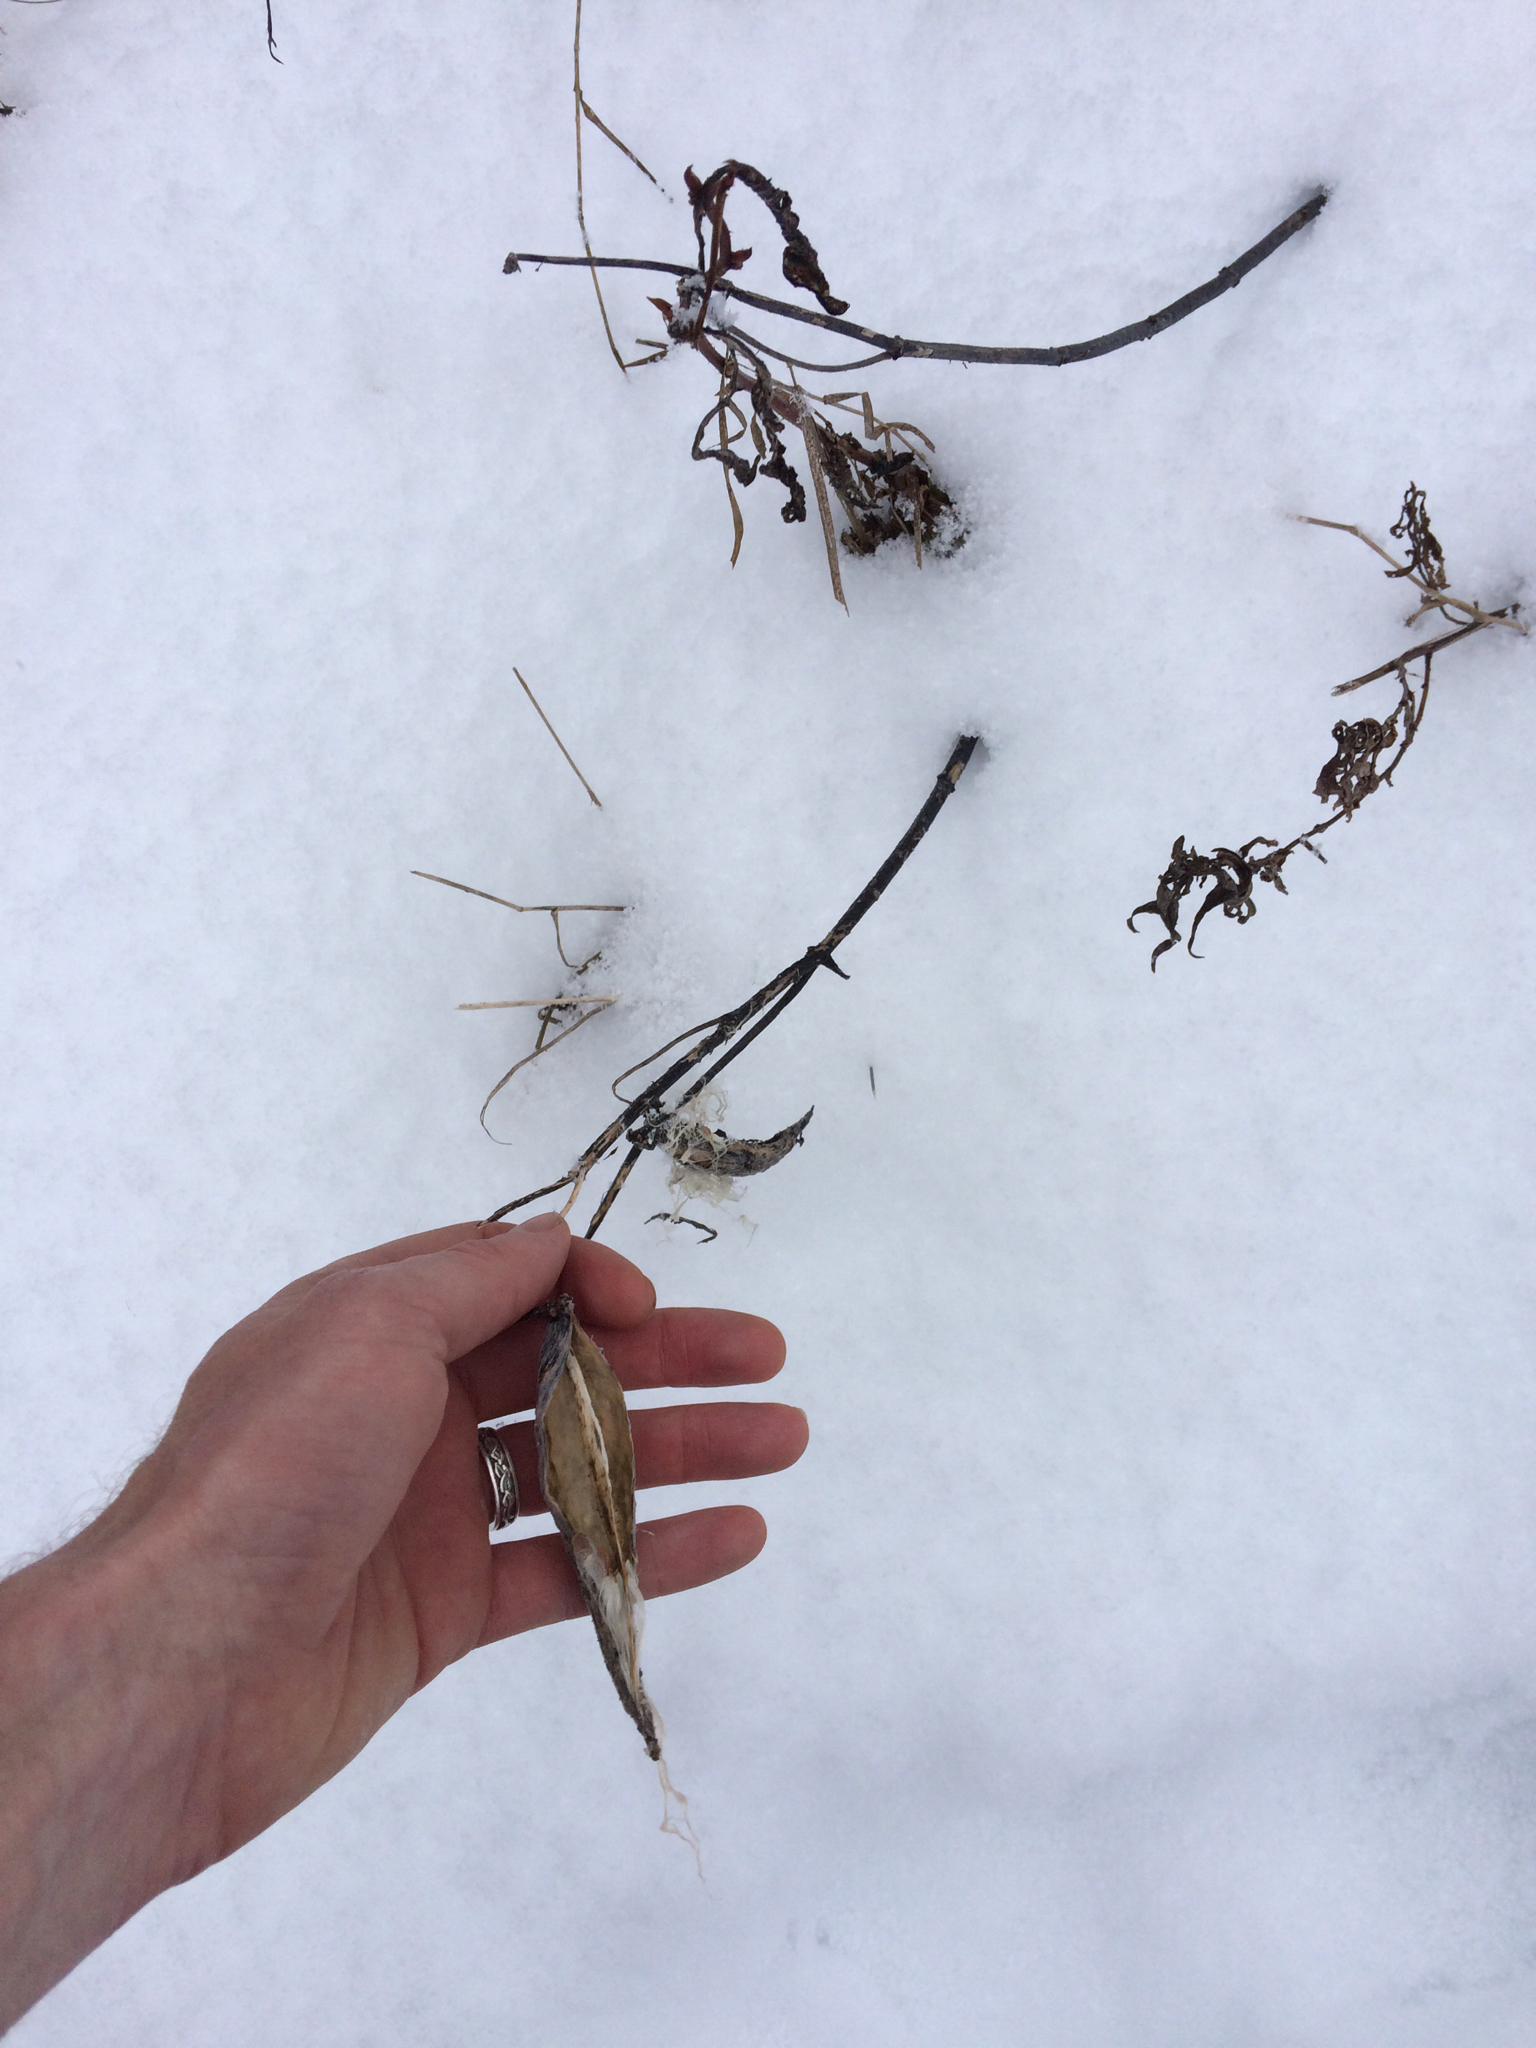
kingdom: Plantae
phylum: Tracheophyta
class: Magnoliopsida
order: Gentianales
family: Apocynaceae
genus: Asclepias
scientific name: Asclepias syriaca
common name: Common milkweed
